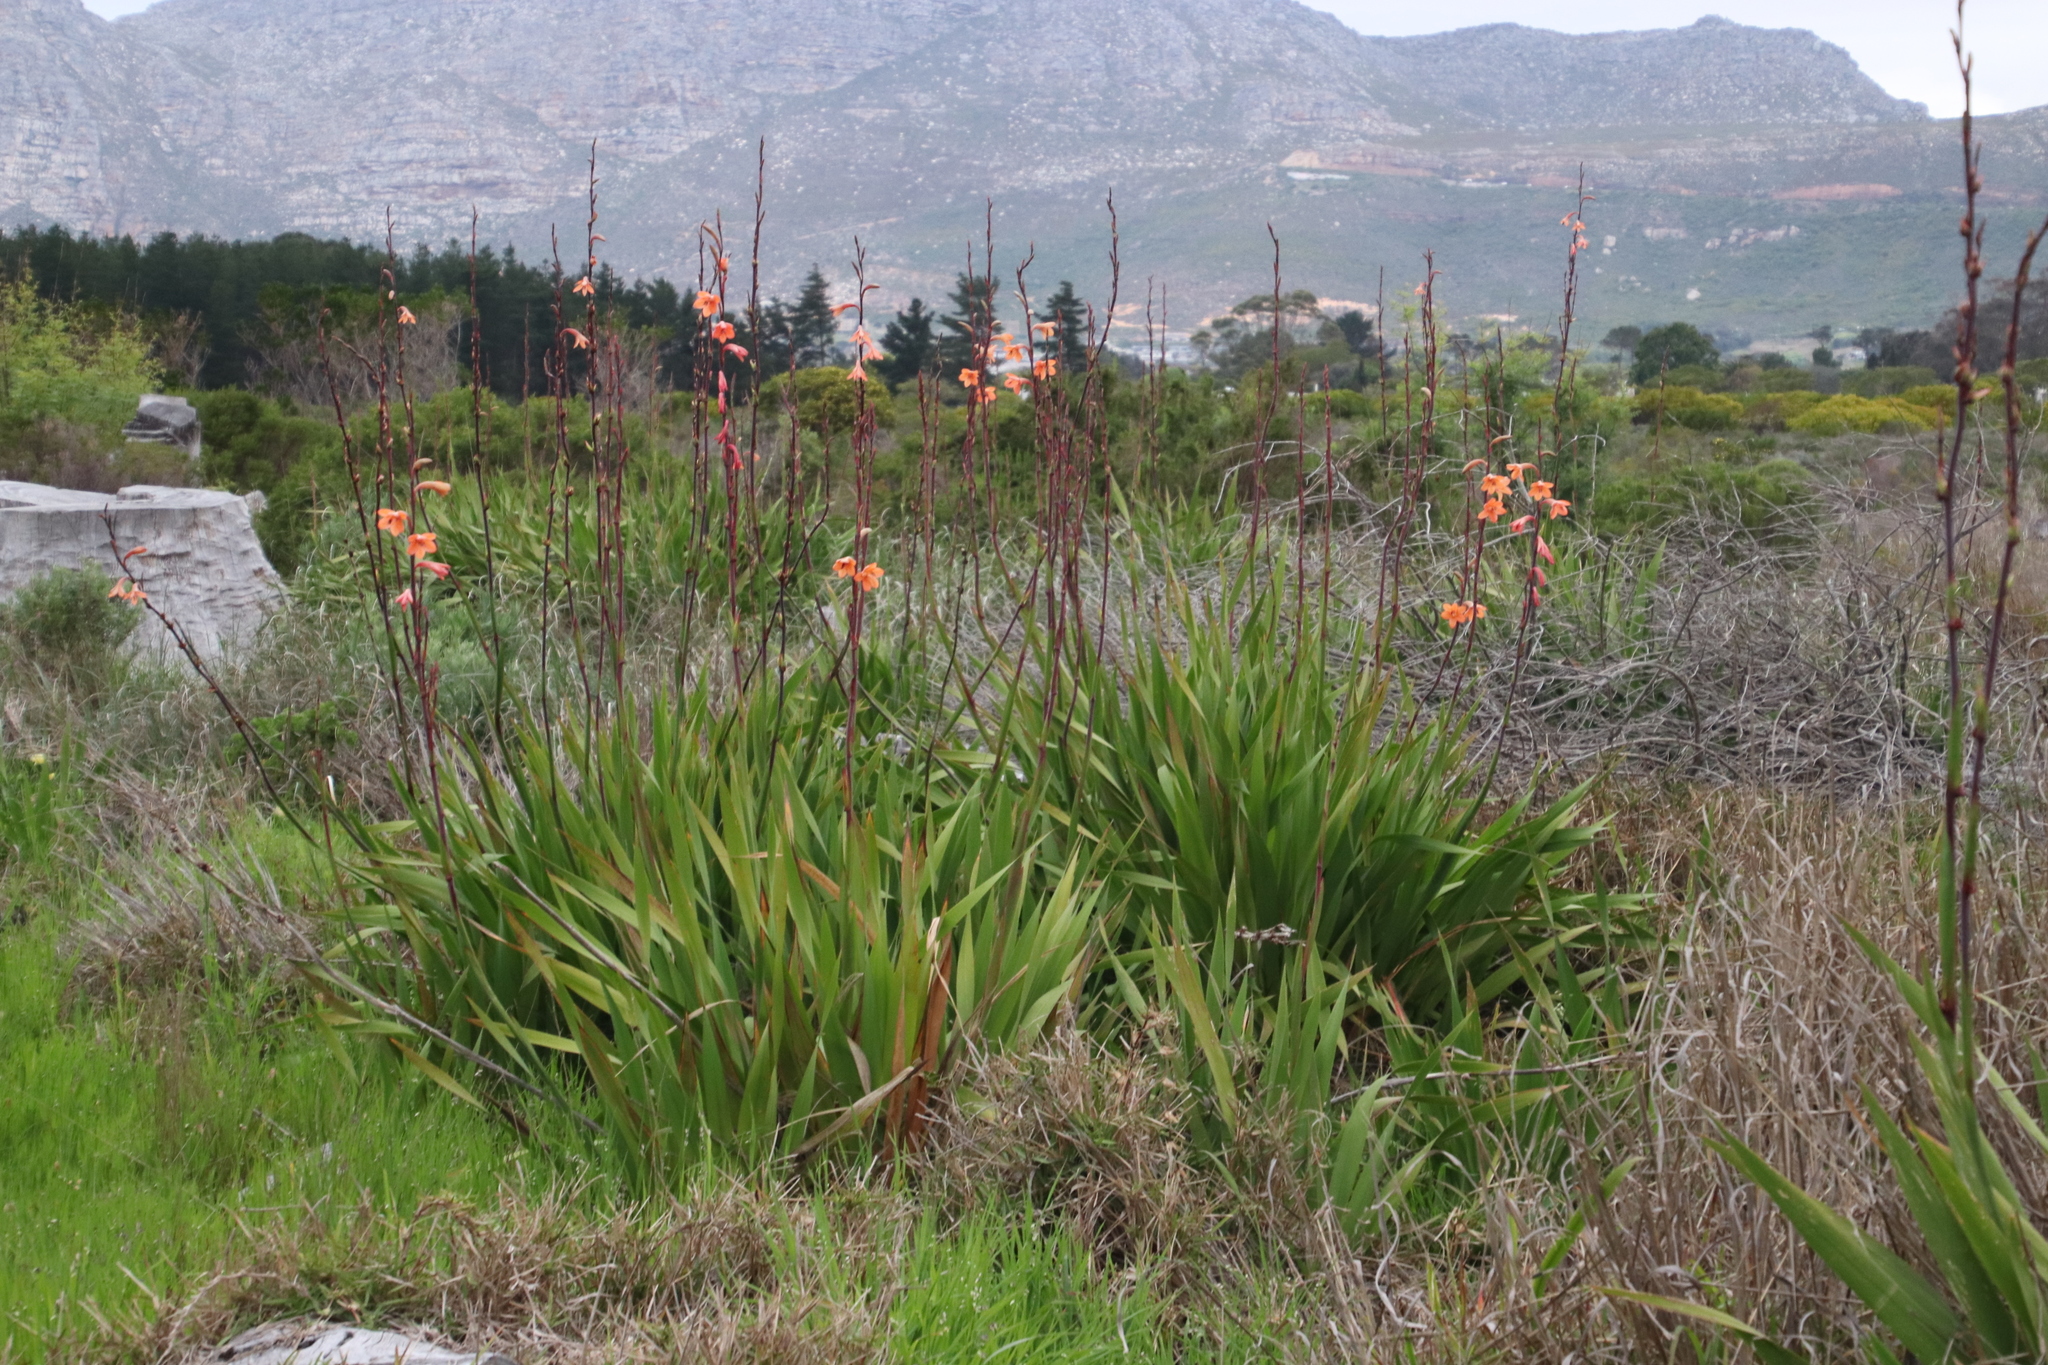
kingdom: Plantae
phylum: Tracheophyta
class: Liliopsida
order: Asparagales
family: Iridaceae
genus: Watsonia
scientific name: Watsonia meriana
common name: Bulbil bugle-lily
